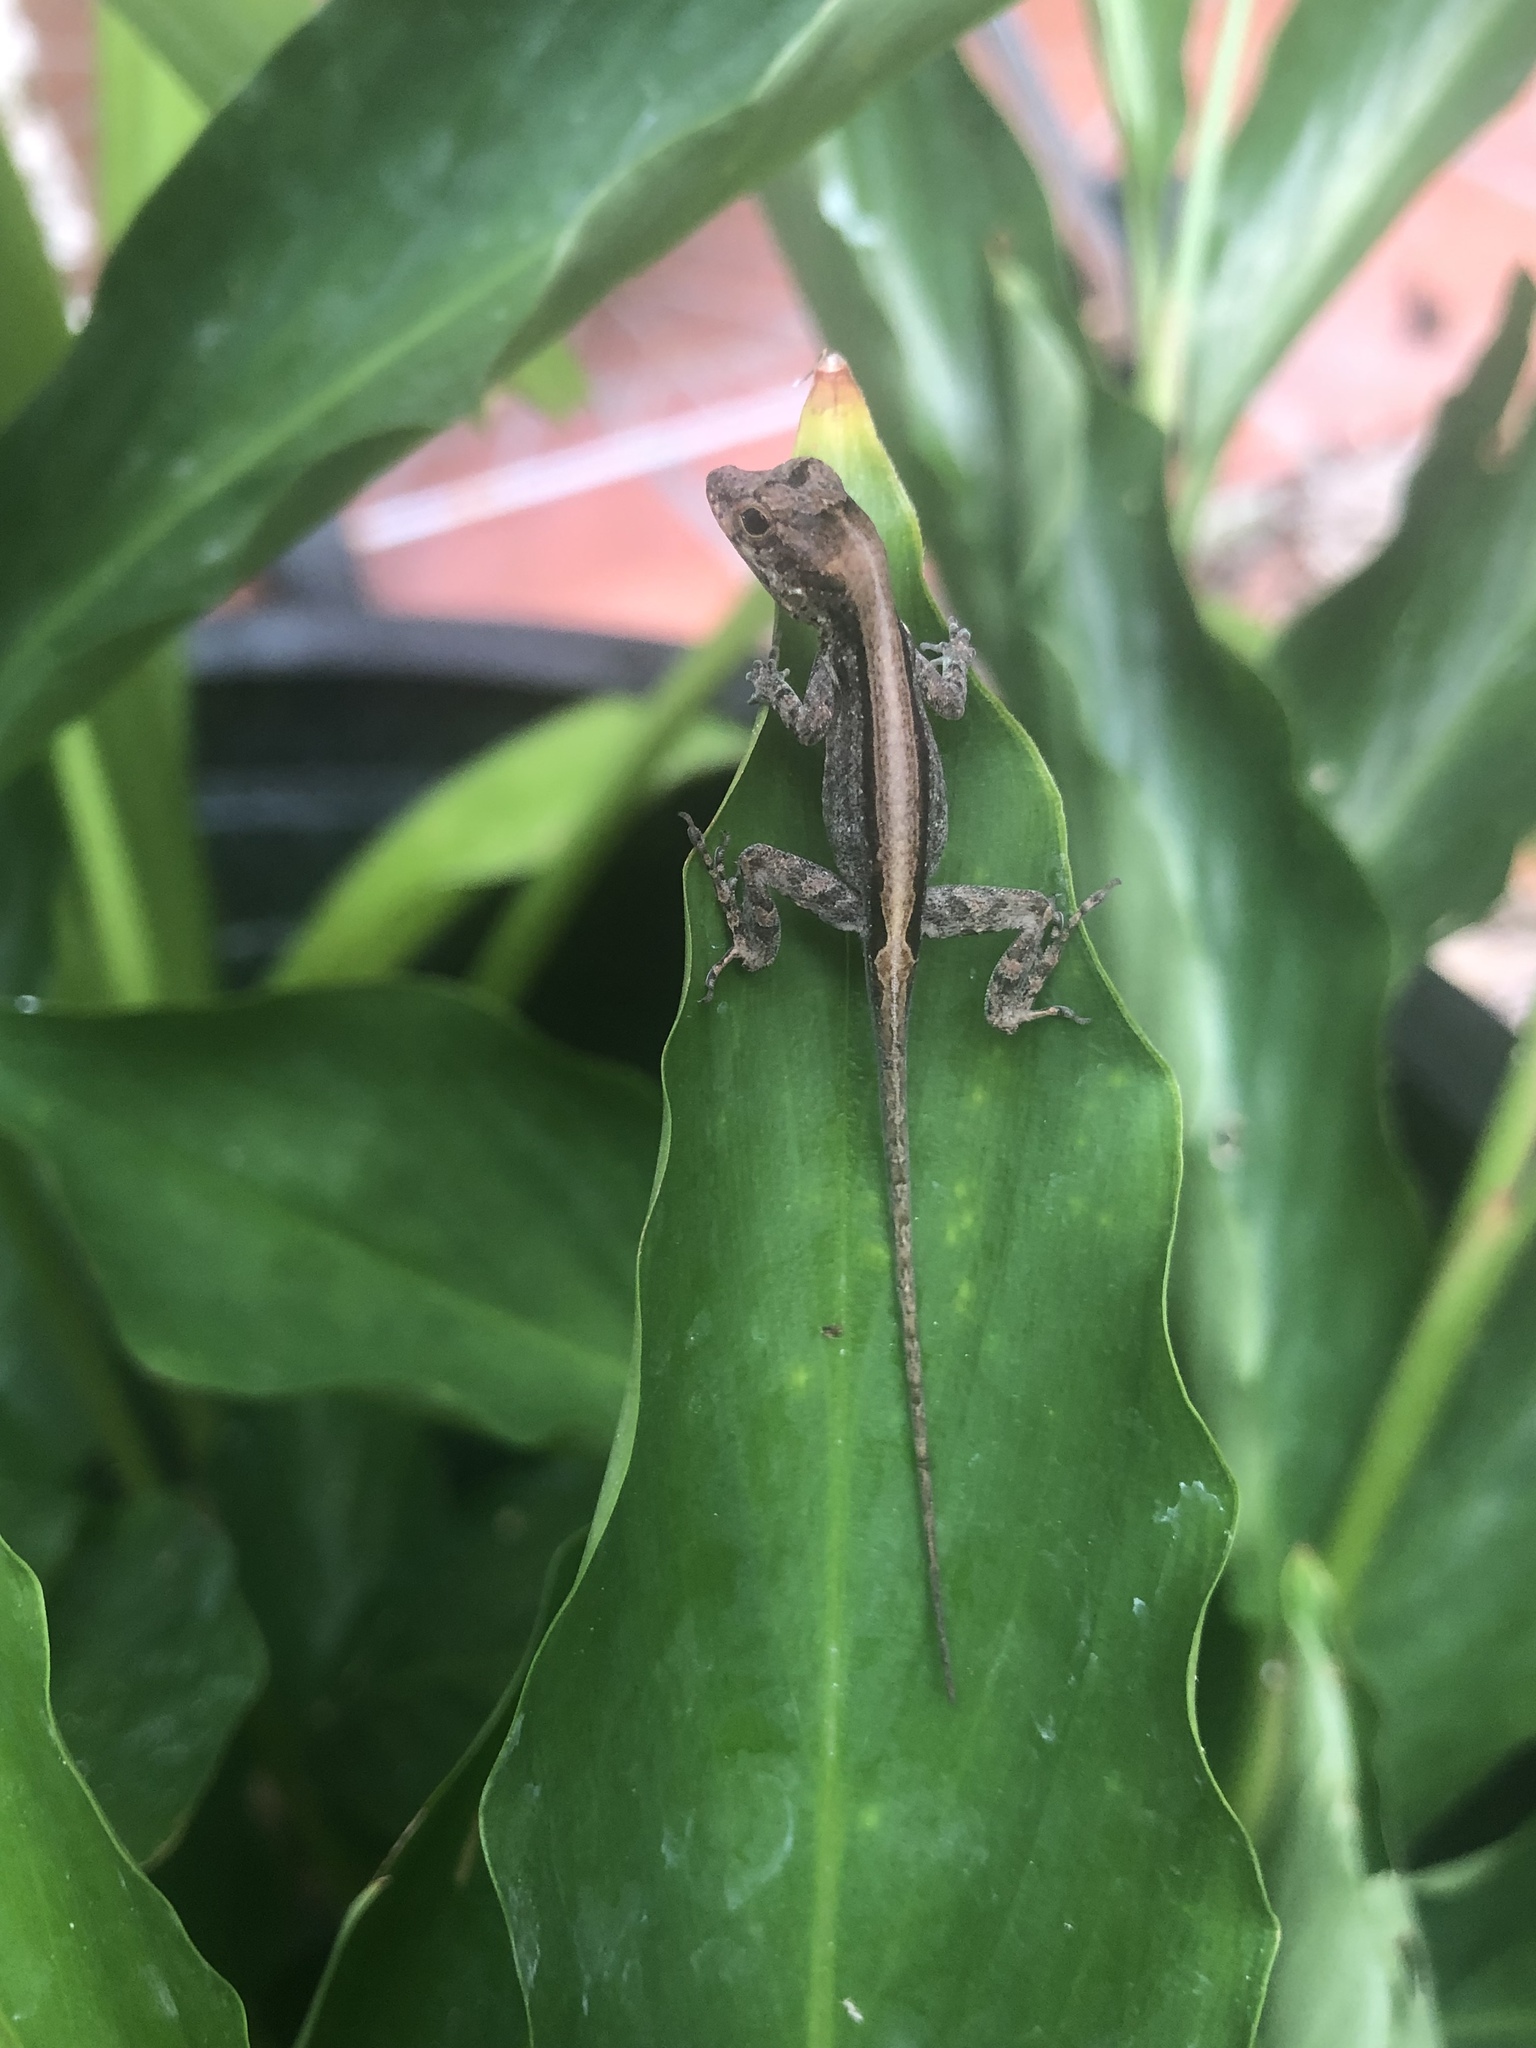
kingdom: Animalia
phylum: Chordata
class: Squamata
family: Dactyloidae
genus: Anolis
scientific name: Anolis cristatellus
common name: Crested anole
